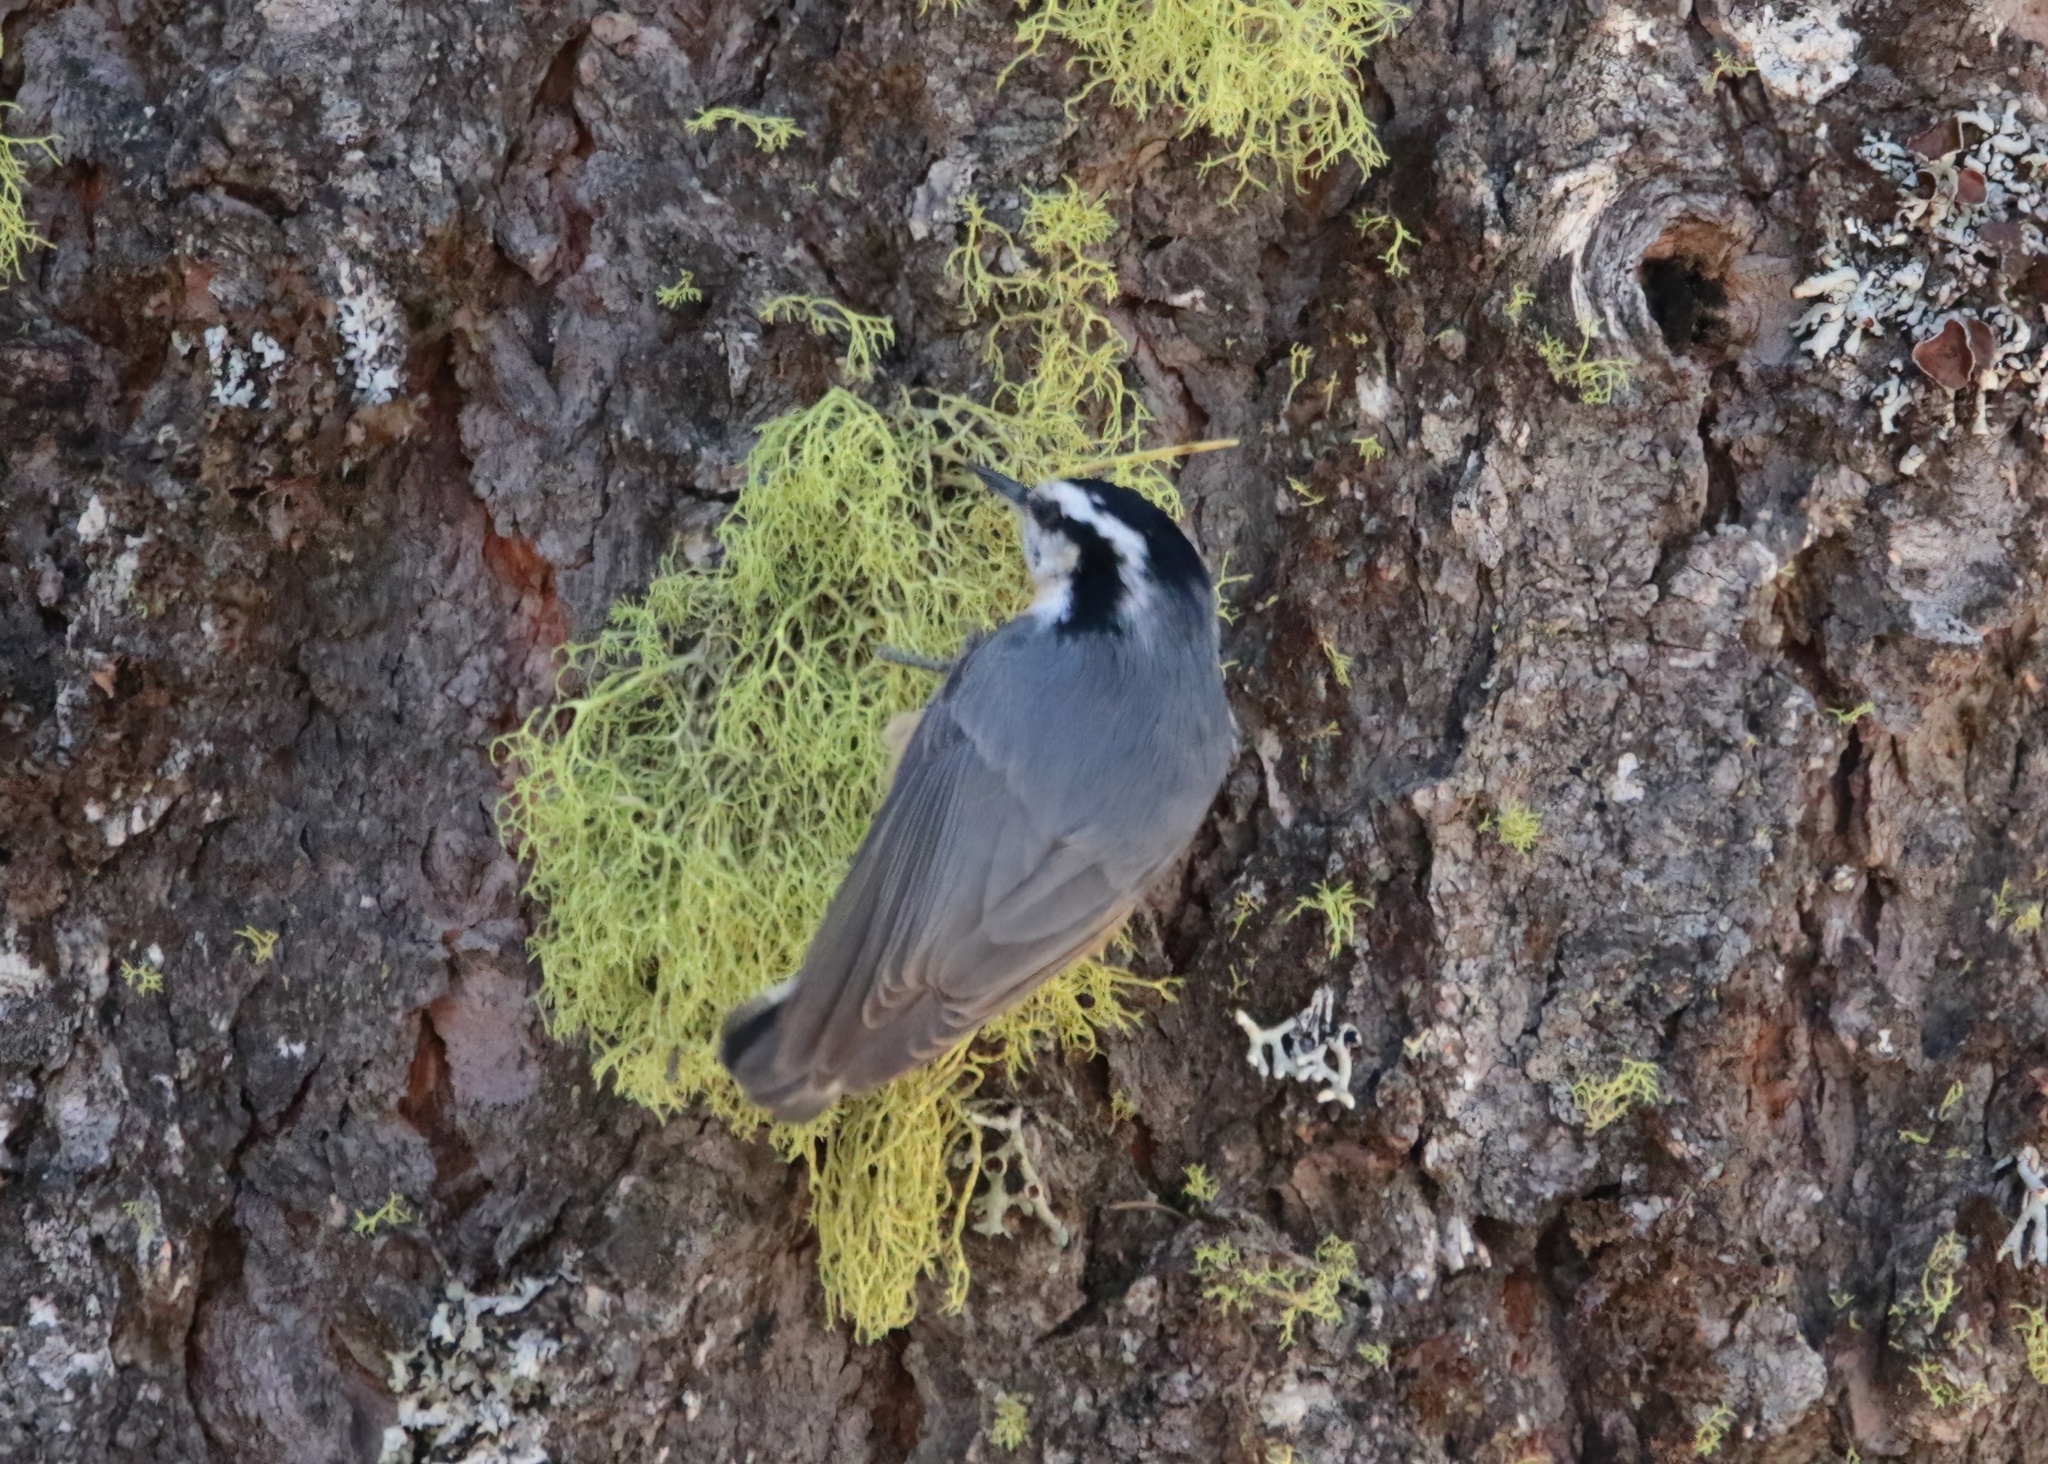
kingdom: Animalia
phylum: Chordata
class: Aves
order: Passeriformes
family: Sittidae
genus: Sitta
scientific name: Sitta canadensis
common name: Red-breasted nuthatch
